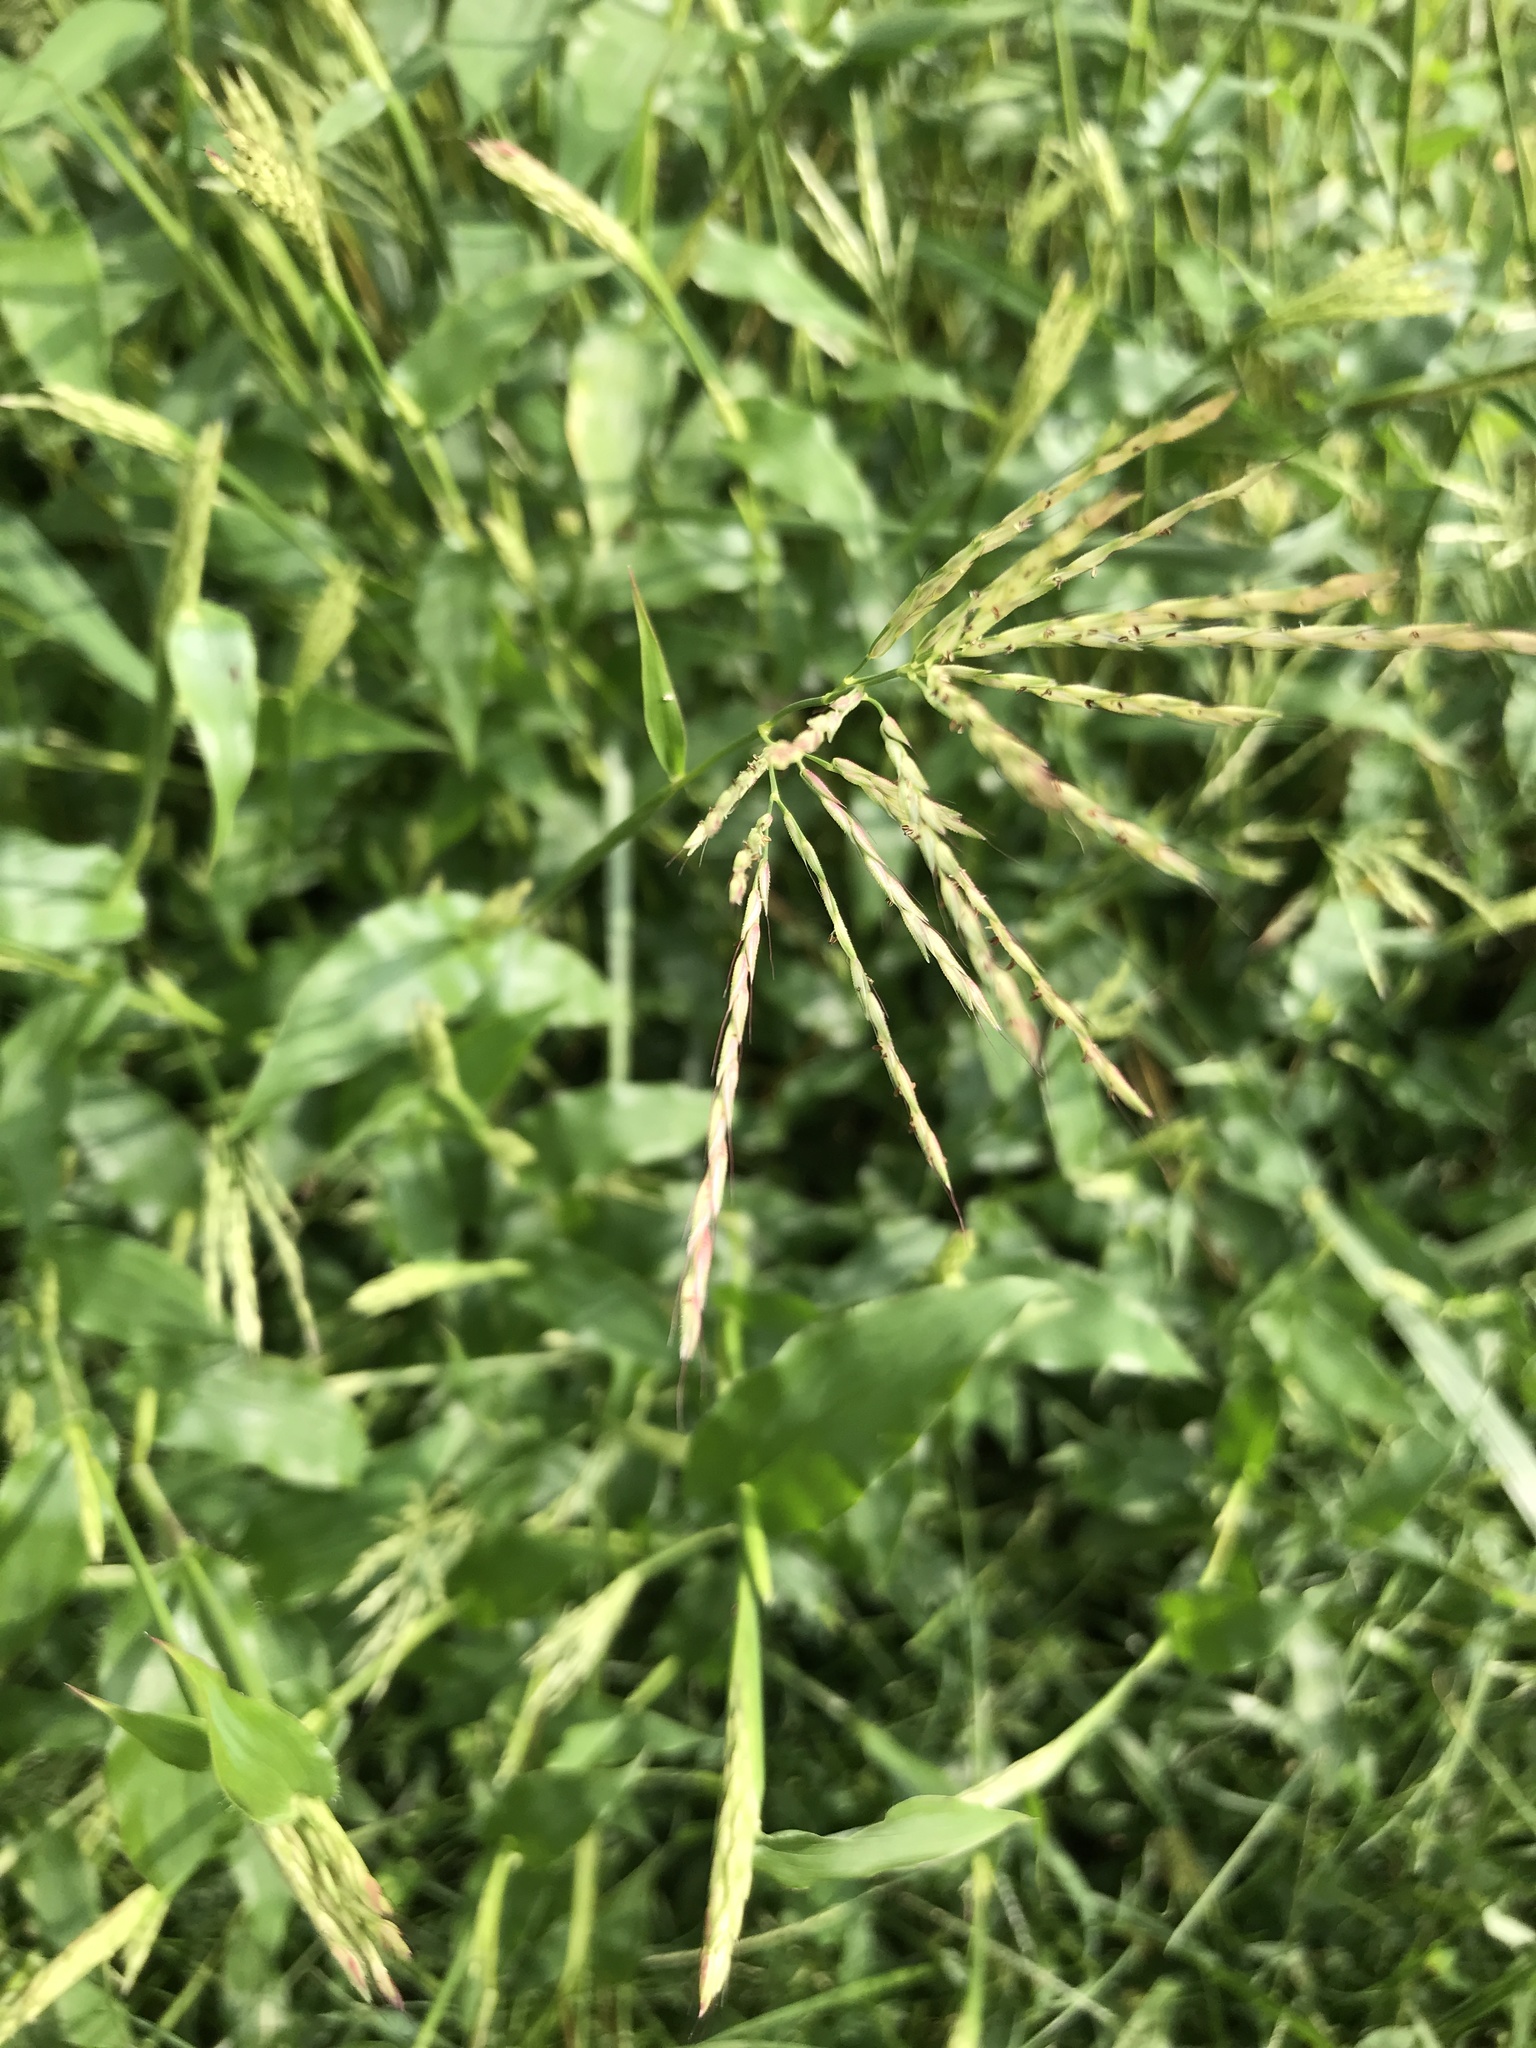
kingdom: Plantae
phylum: Tracheophyta
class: Liliopsida
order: Poales
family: Poaceae
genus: Arthraxon
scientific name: Arthraxon hispidus
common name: Small carpgrass
